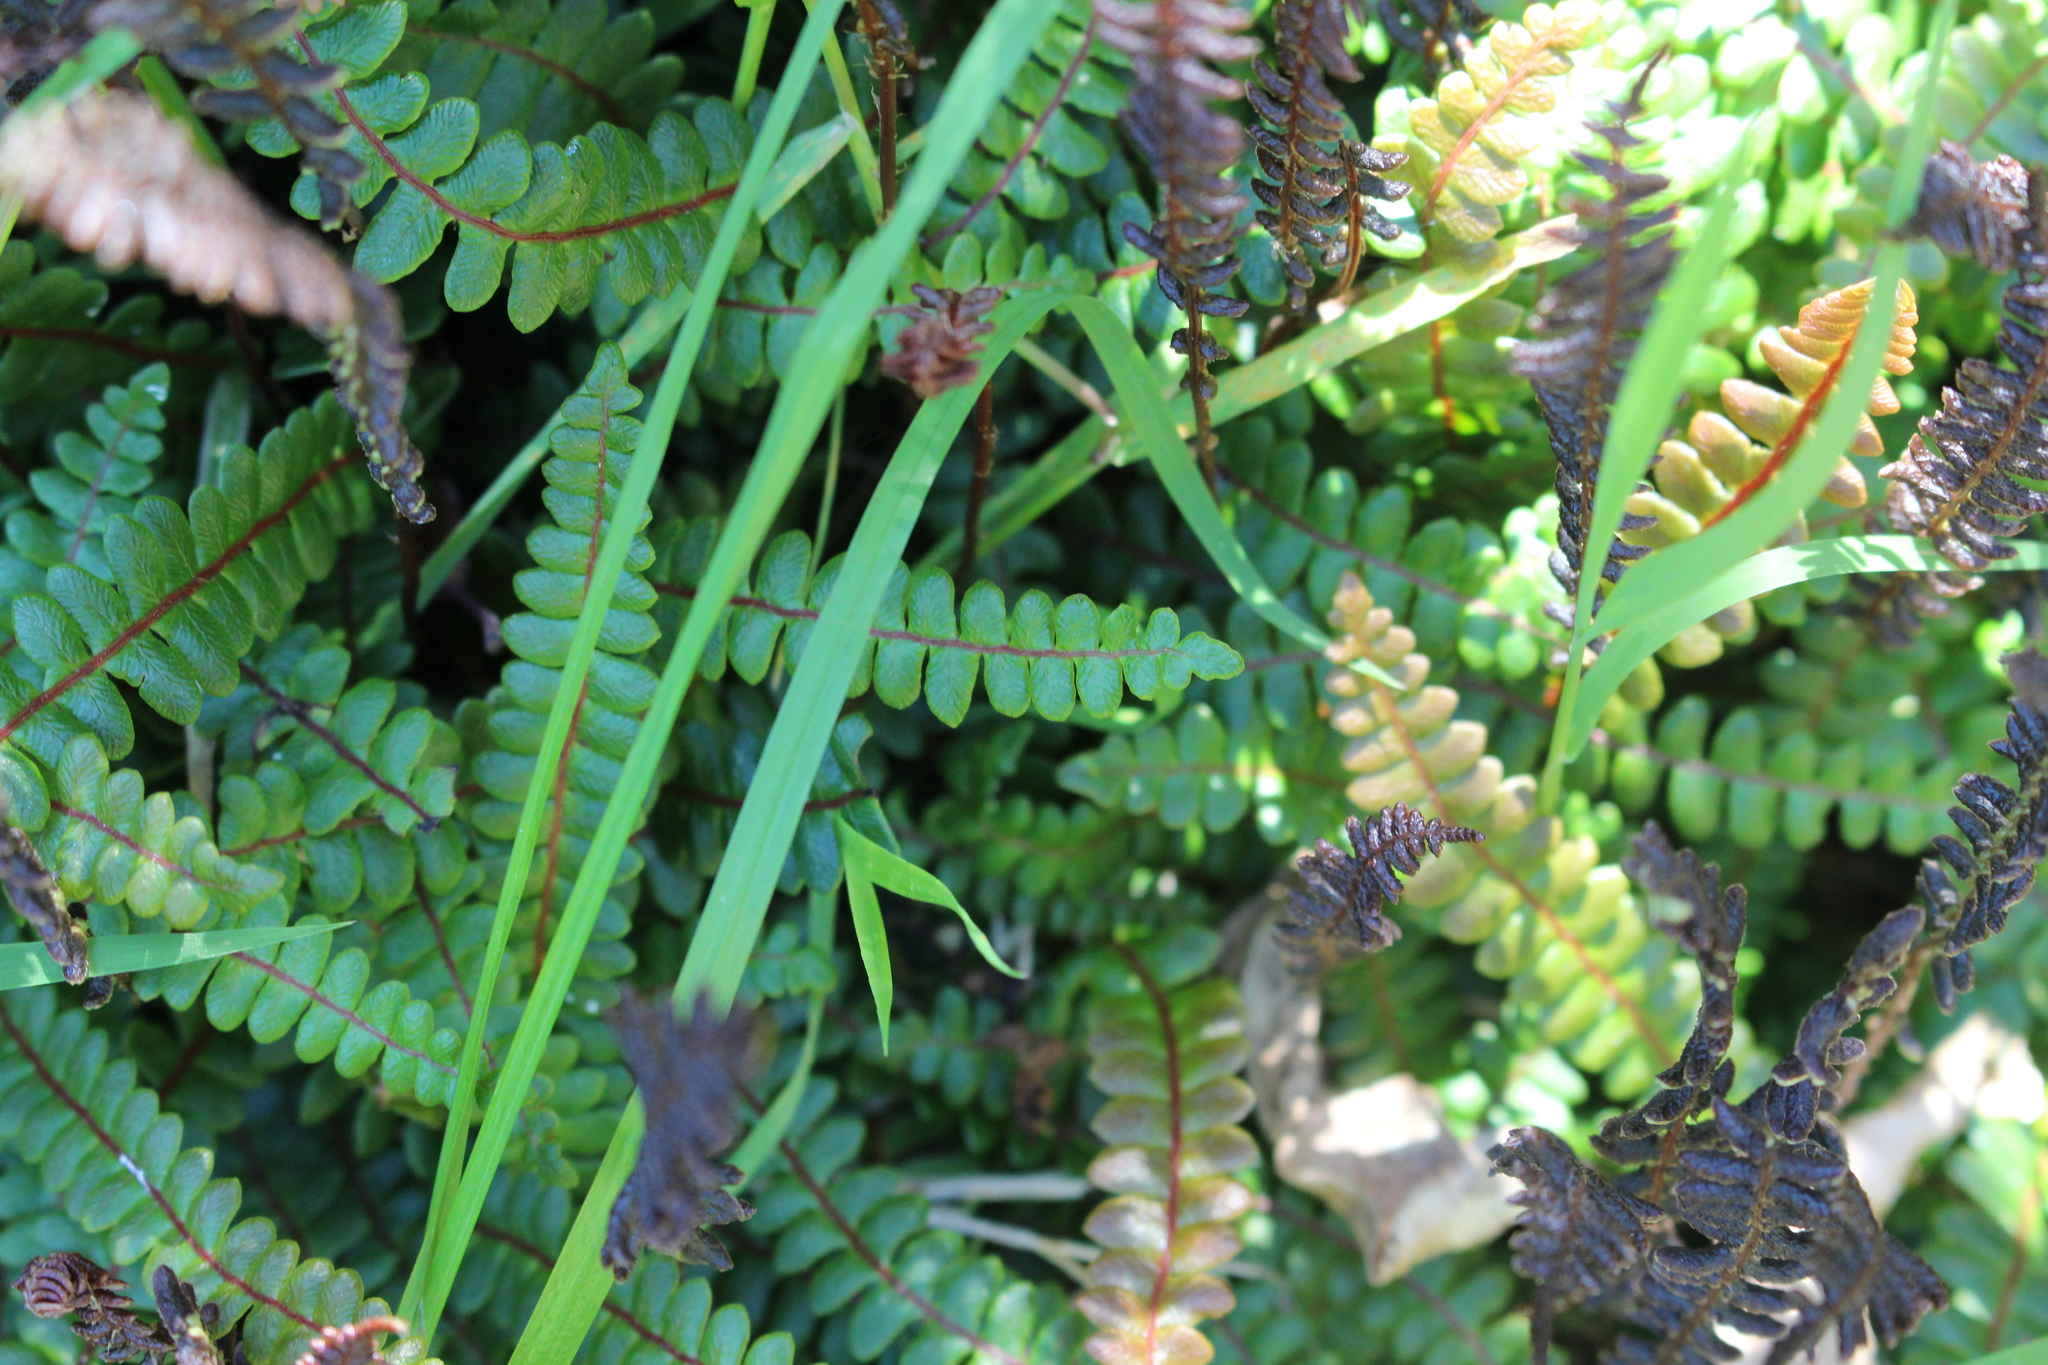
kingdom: Plantae
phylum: Tracheophyta
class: Polypodiopsida
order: Polypodiales
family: Blechnaceae
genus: Austroblechnum
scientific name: Austroblechnum penna-marina
